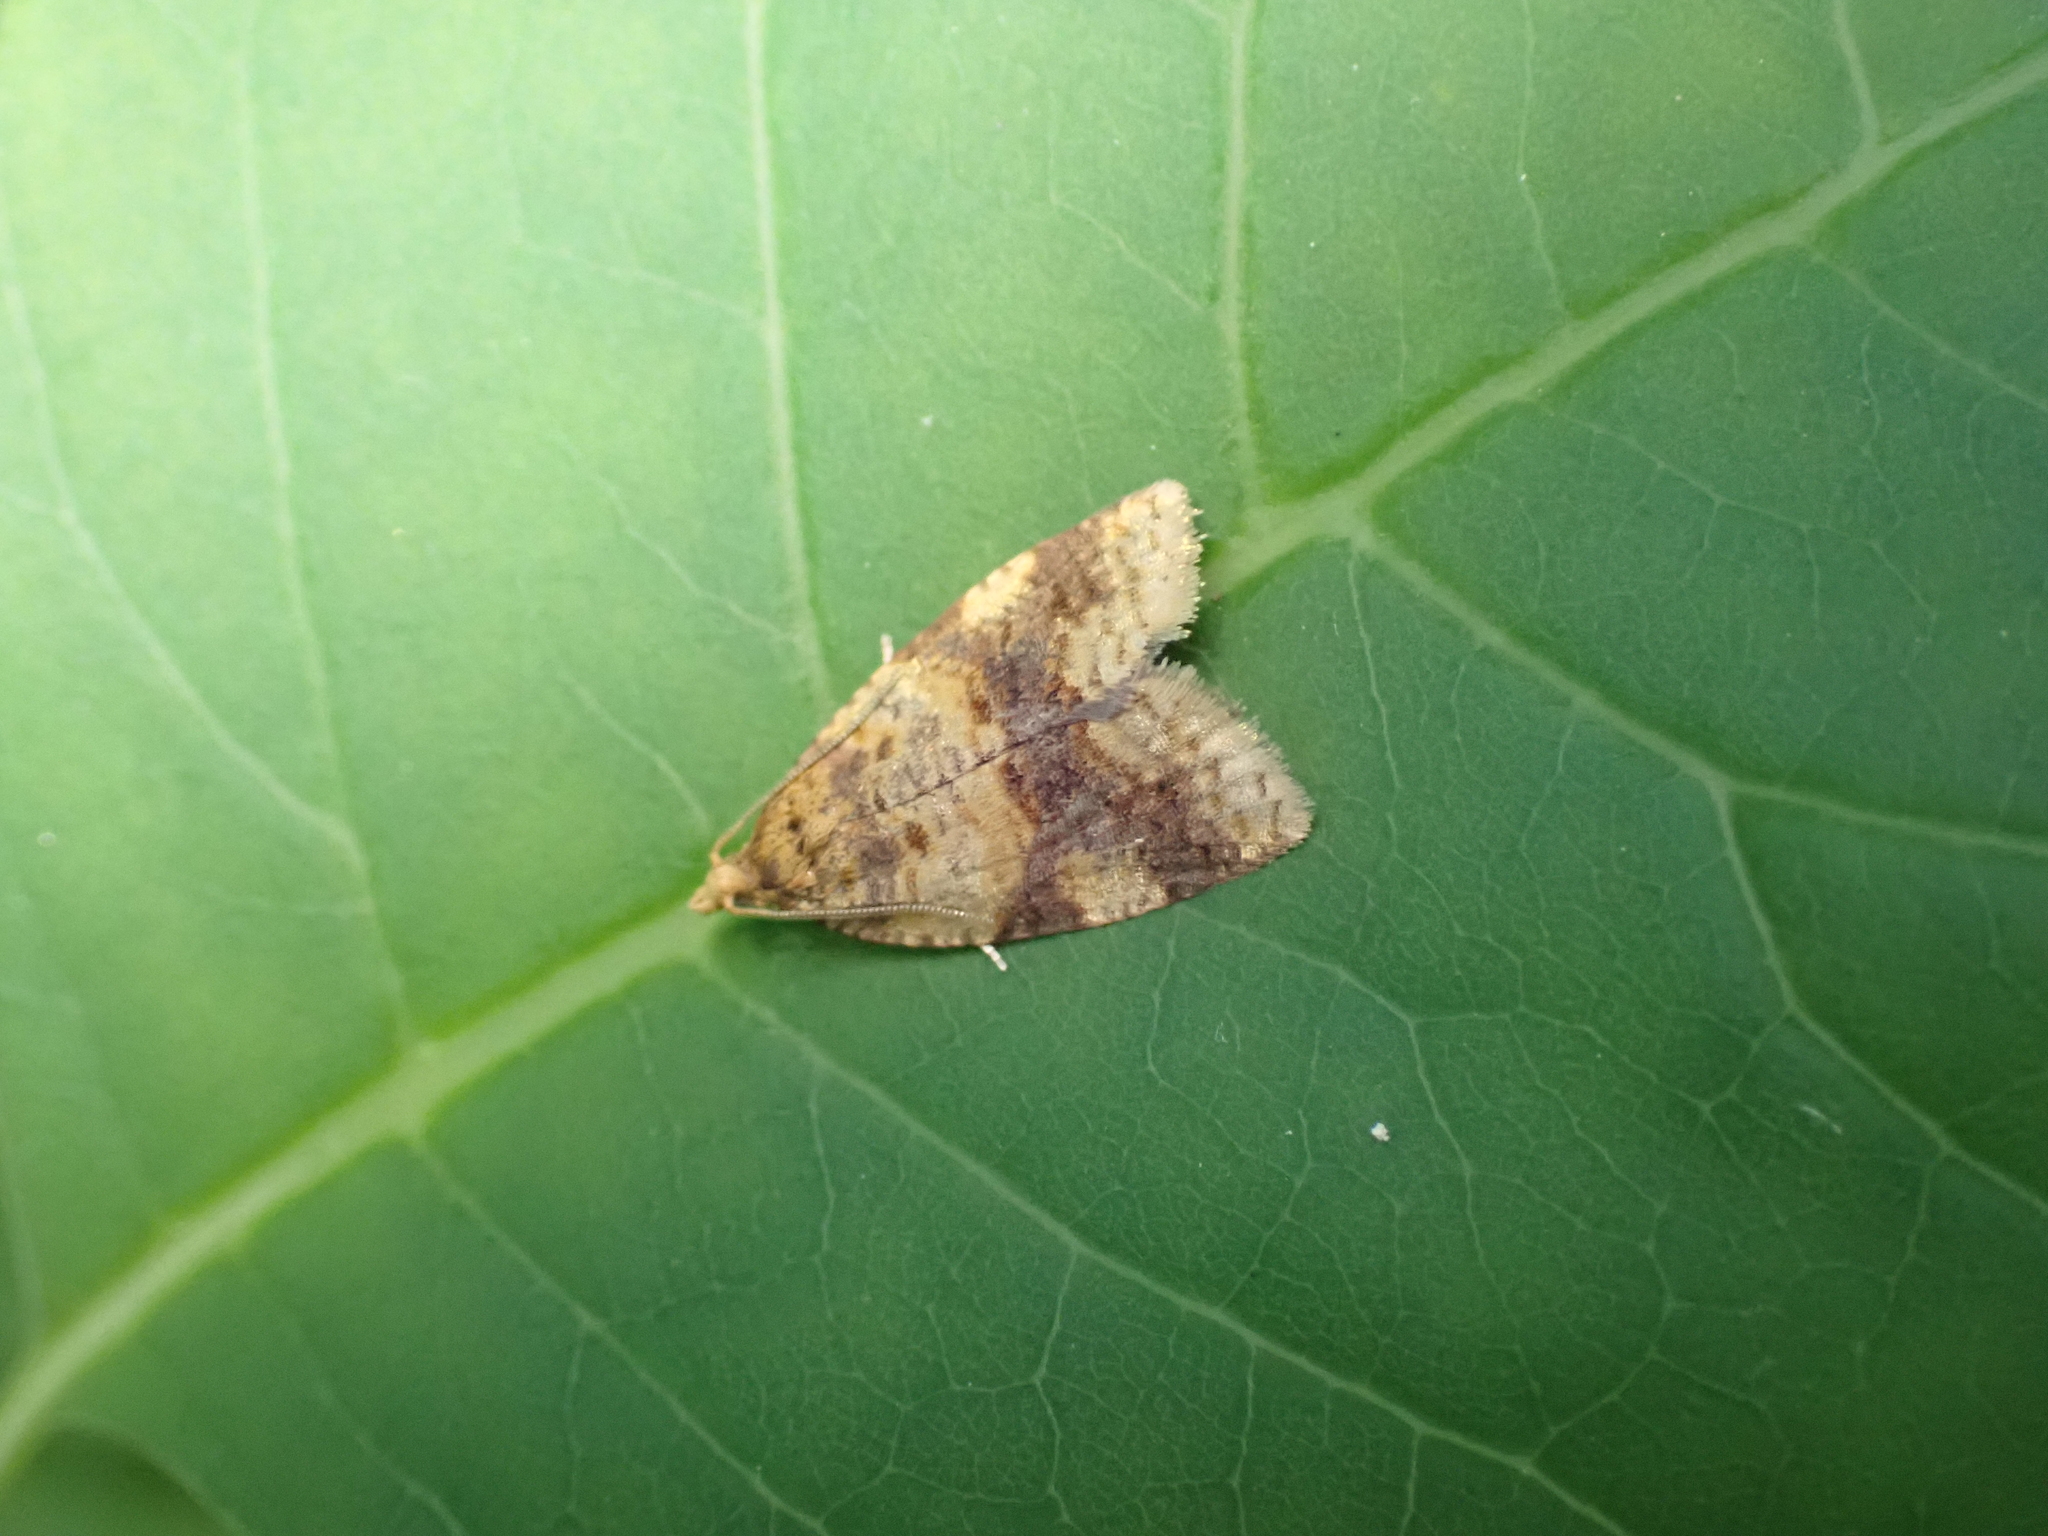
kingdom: Animalia
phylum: Arthropoda
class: Insecta
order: Lepidoptera
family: Tortricidae
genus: Epagoge
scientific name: Epagoge grotiana
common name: Brown-barred twist
